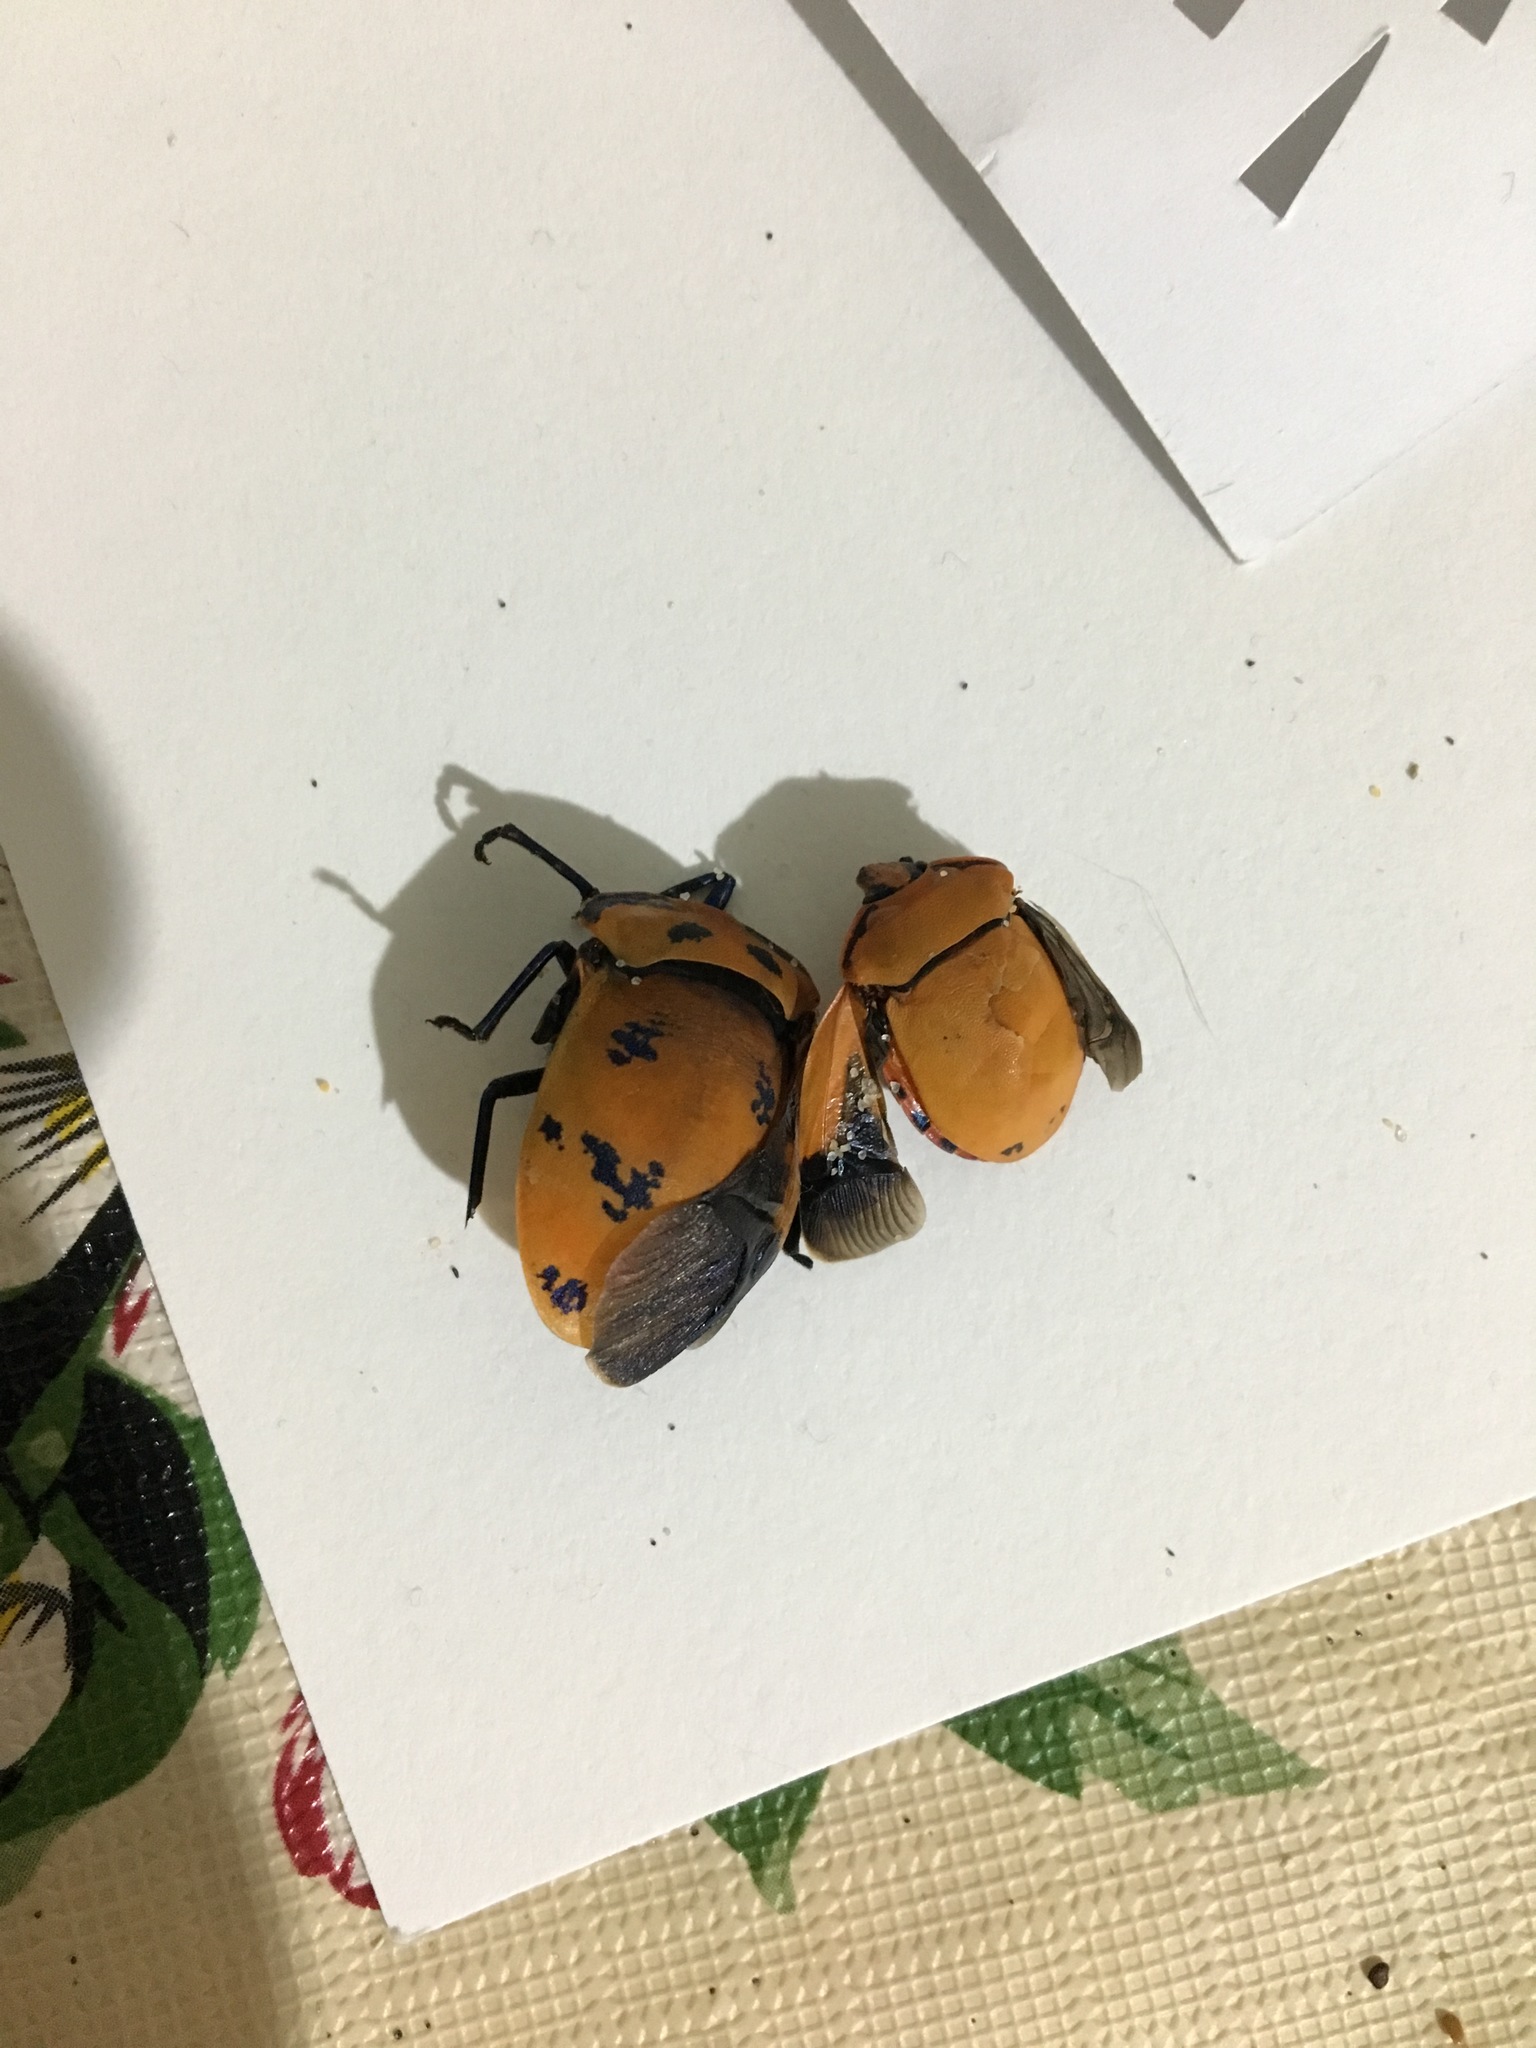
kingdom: Animalia
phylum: Arthropoda
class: Insecta
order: Hemiptera
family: Scutelleridae
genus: Tectocoris
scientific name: Tectocoris diophthalmus
